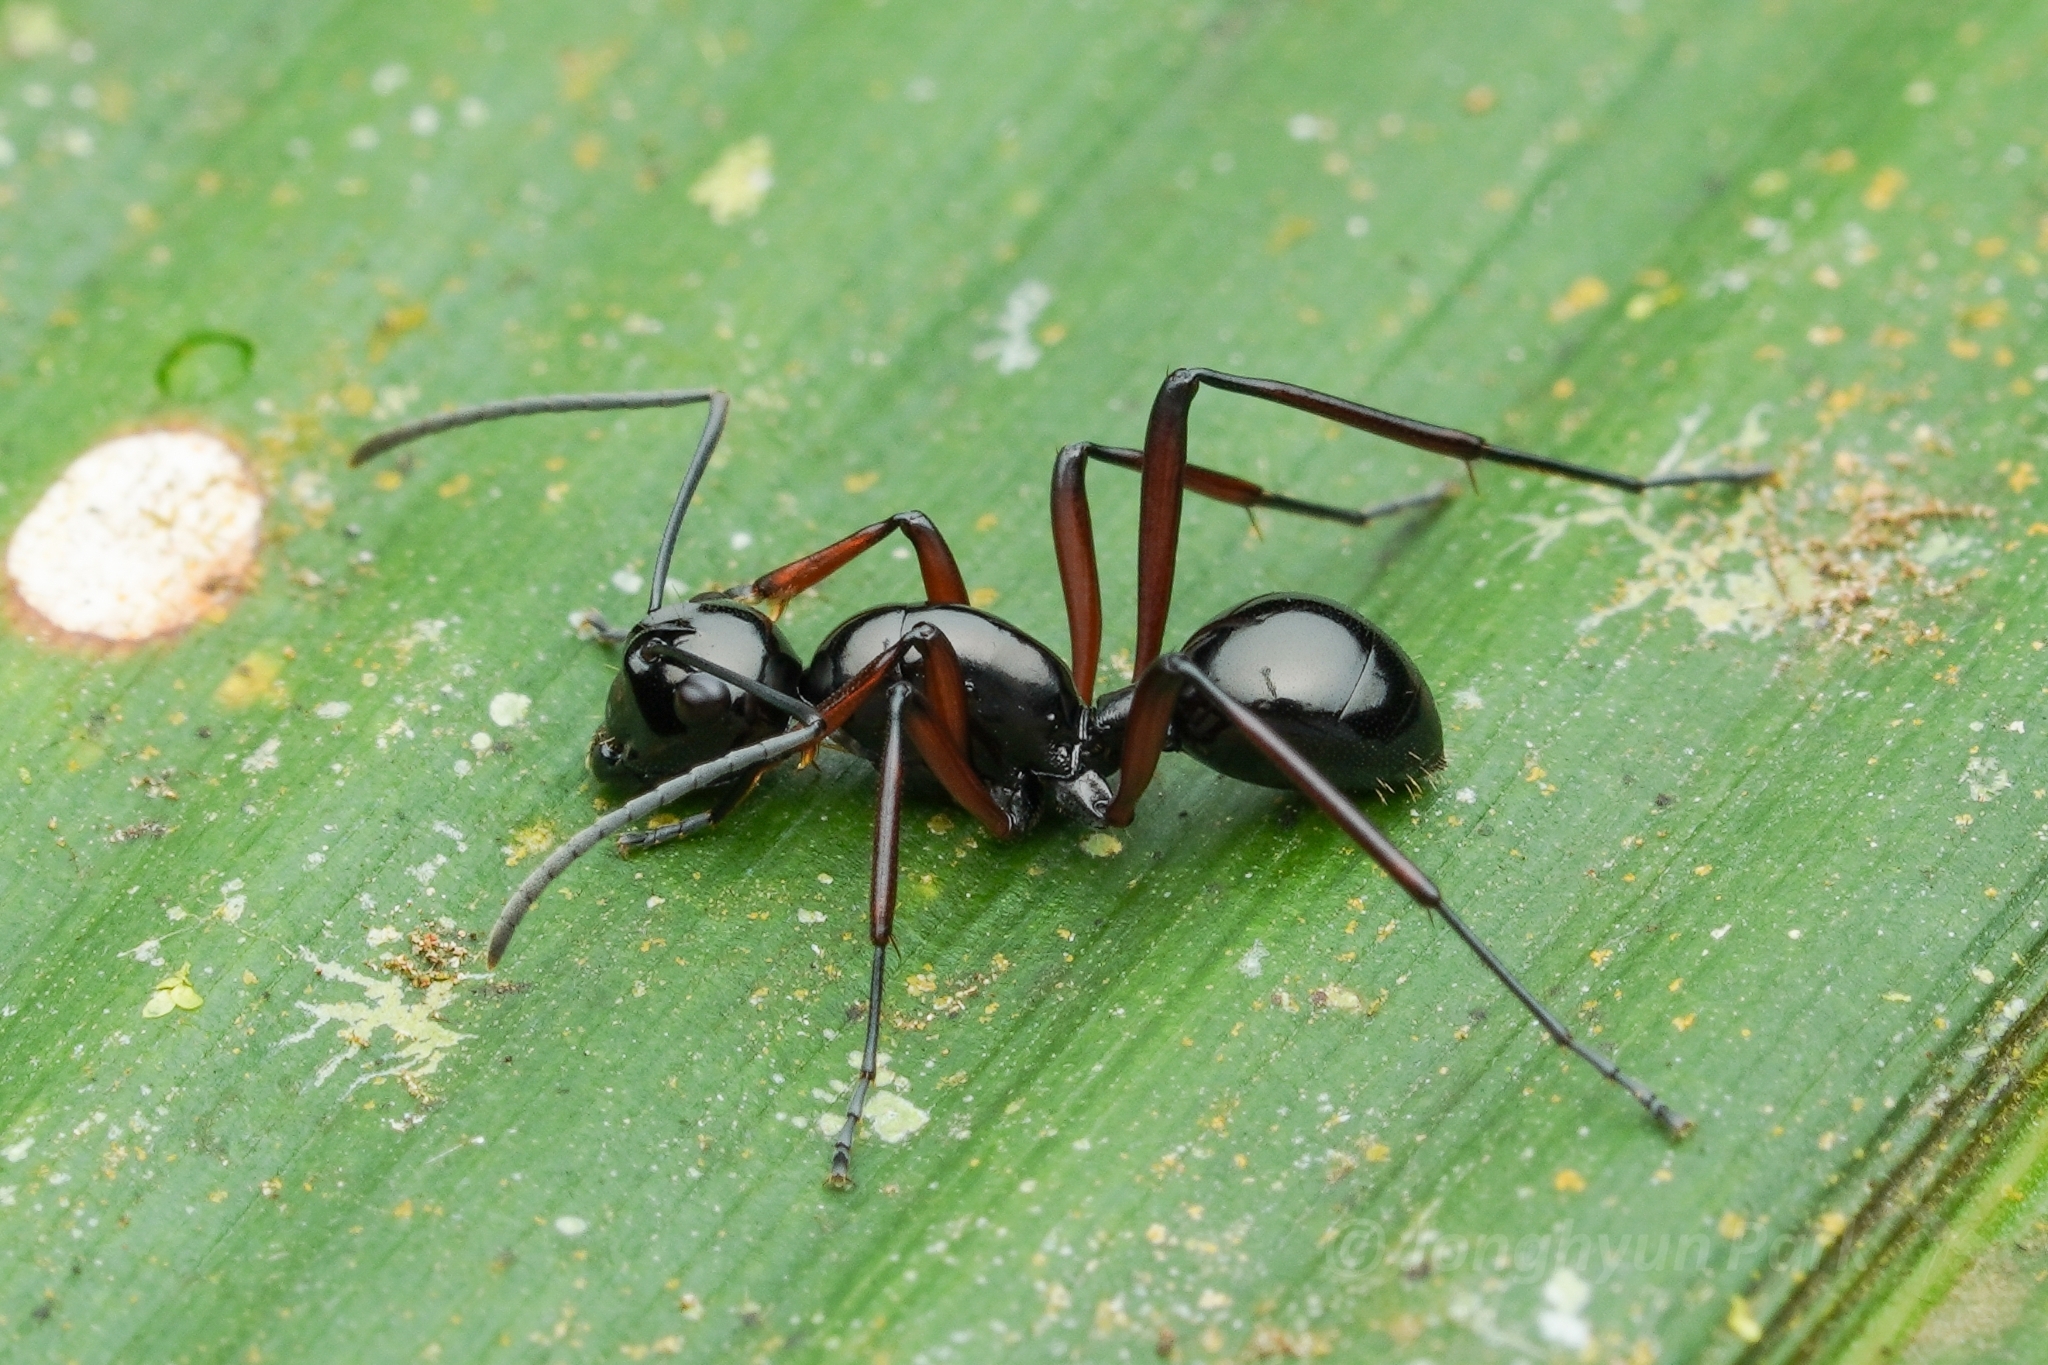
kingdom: Animalia
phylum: Arthropoda
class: Insecta
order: Hymenoptera
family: Formicidae
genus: Polyrhachis
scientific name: Polyrhachis danum
